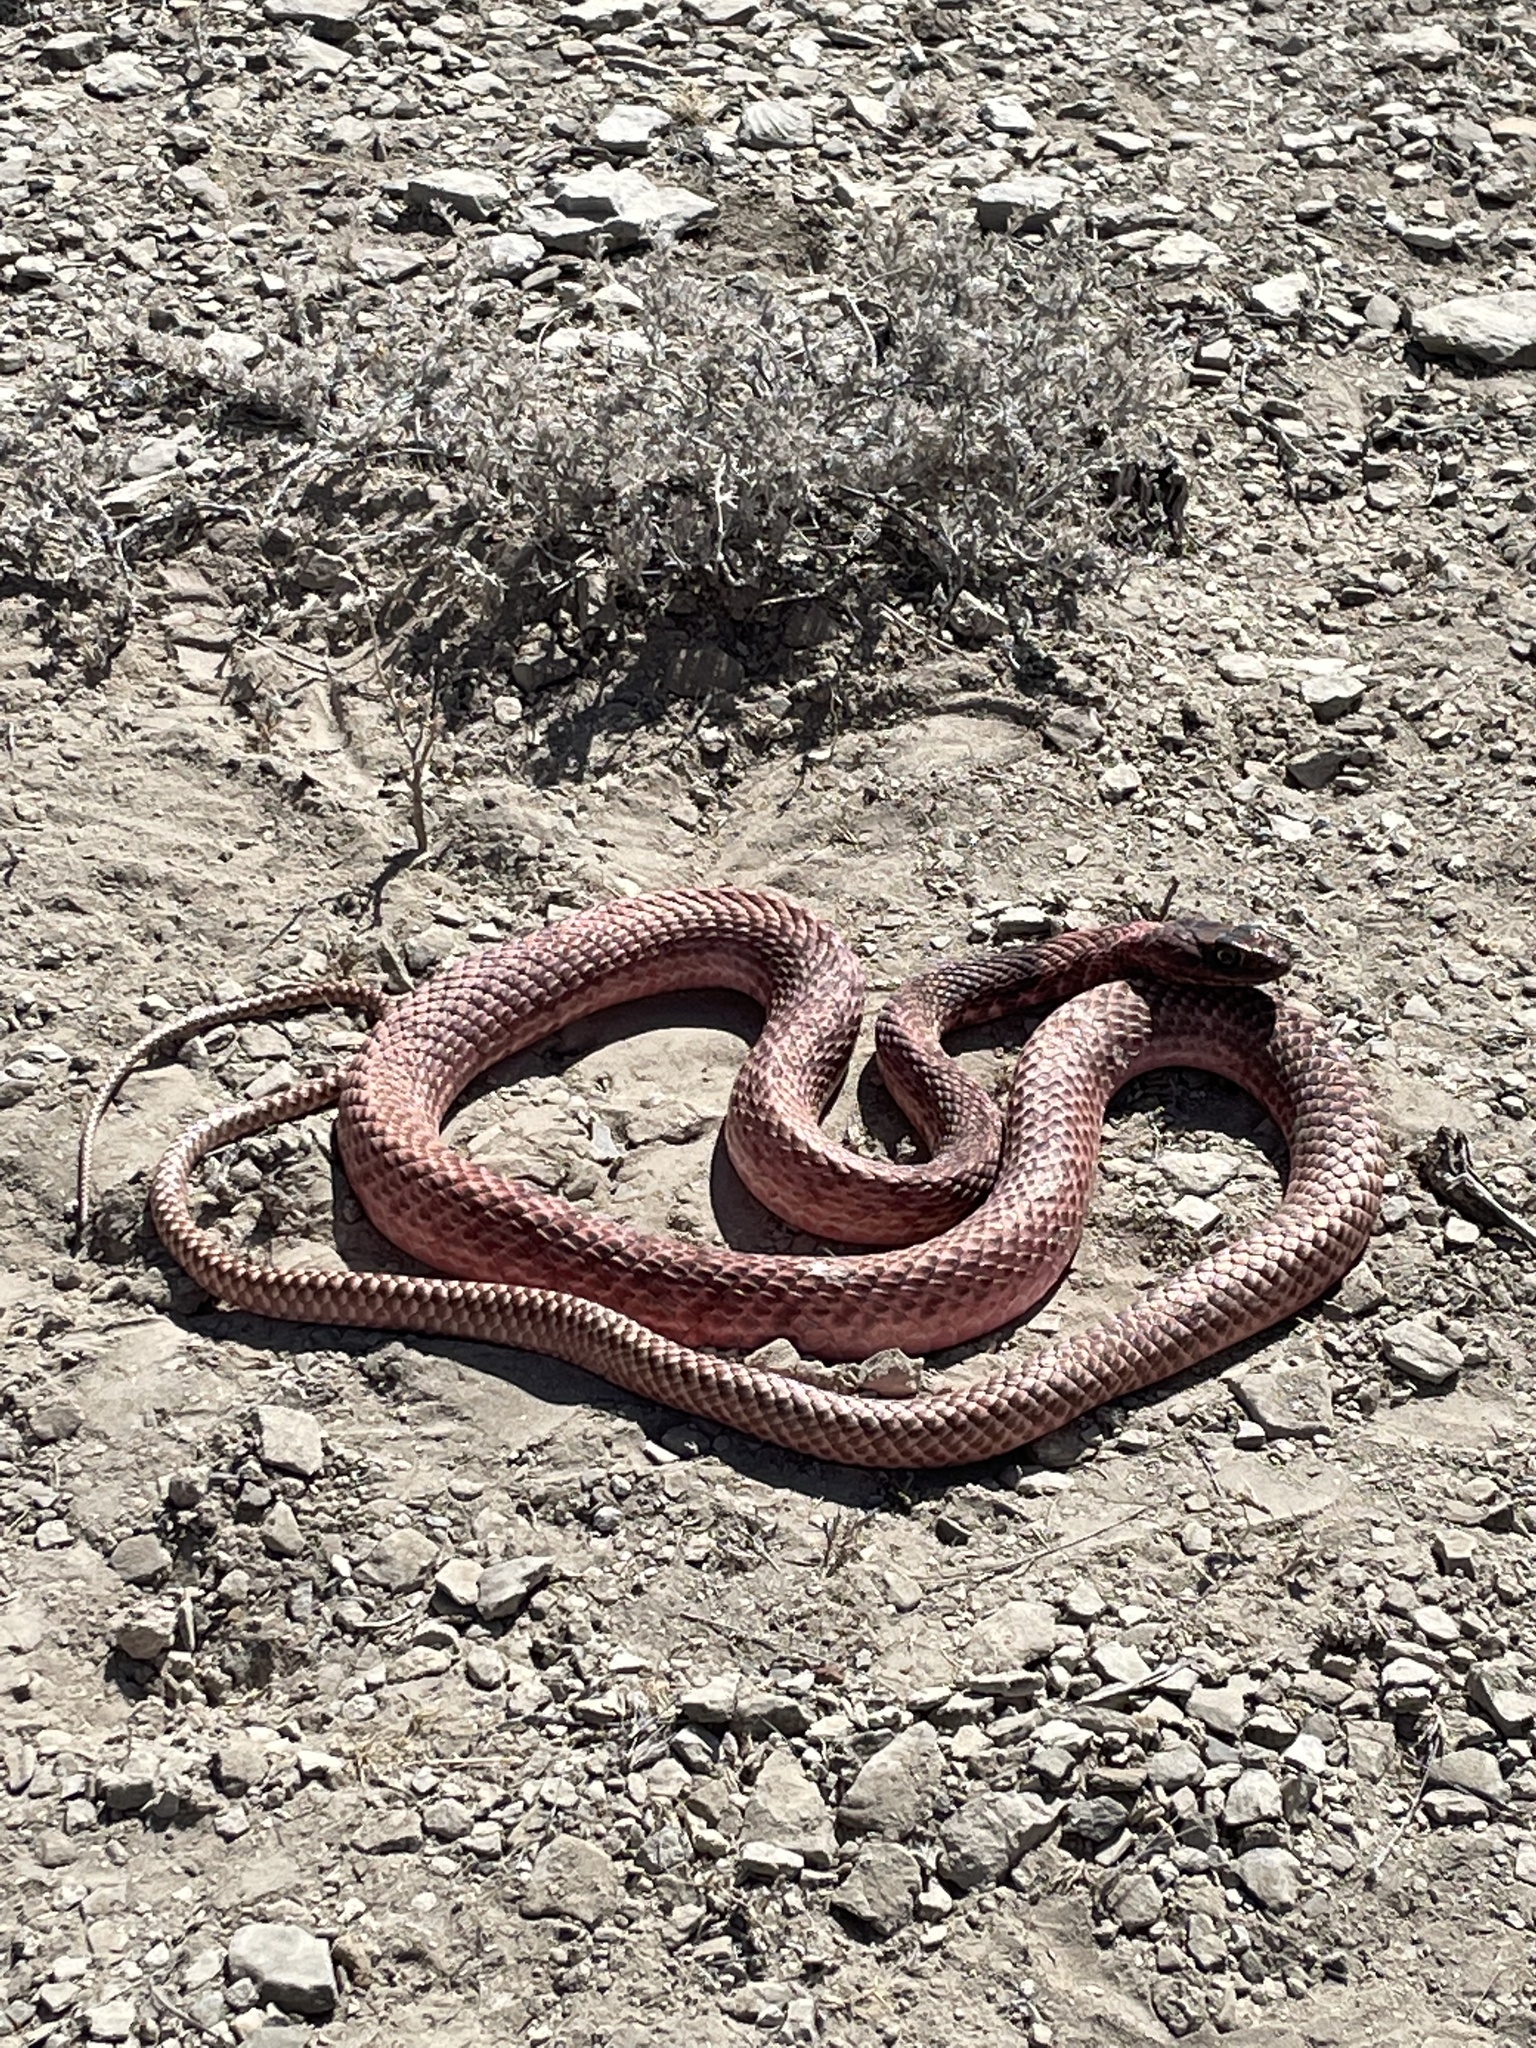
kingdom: Animalia
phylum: Chordata
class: Squamata
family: Colubridae
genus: Masticophis
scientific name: Masticophis flagellum
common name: Coachwhip
